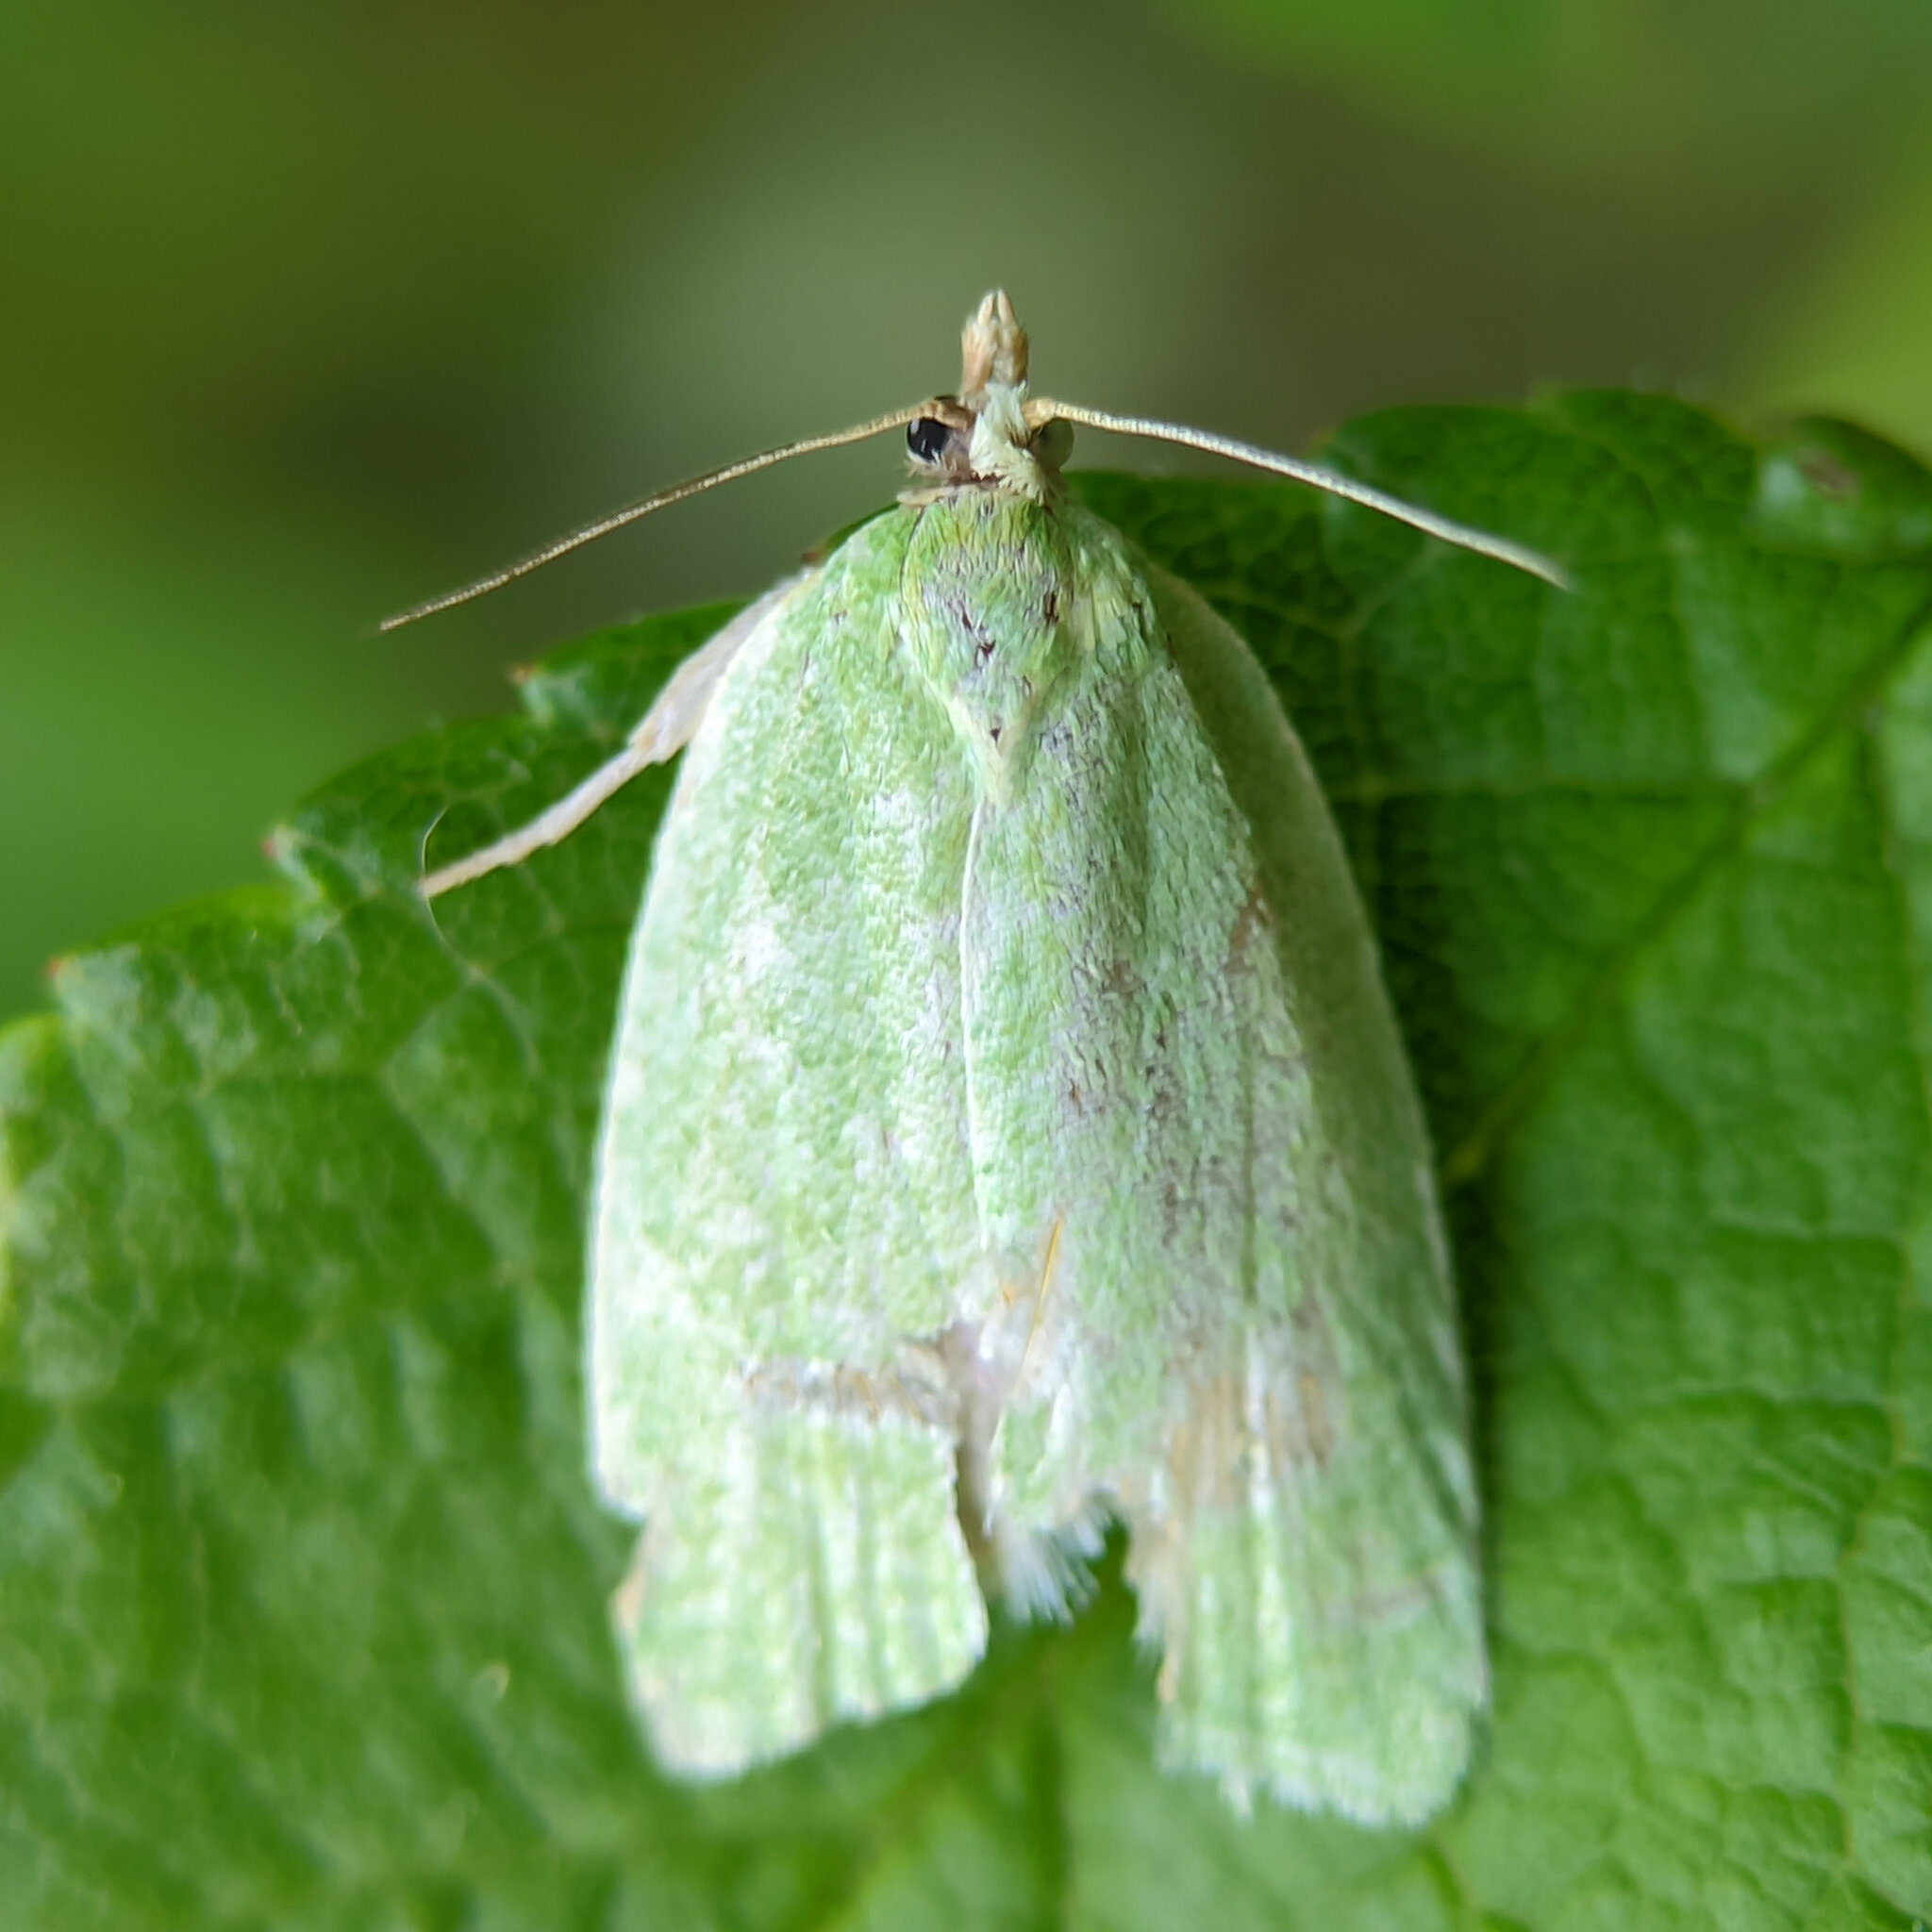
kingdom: Animalia
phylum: Arthropoda
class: Insecta
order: Lepidoptera
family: Tortricidae
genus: Tortrix
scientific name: Tortrix viridana
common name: Green oak tortrix
